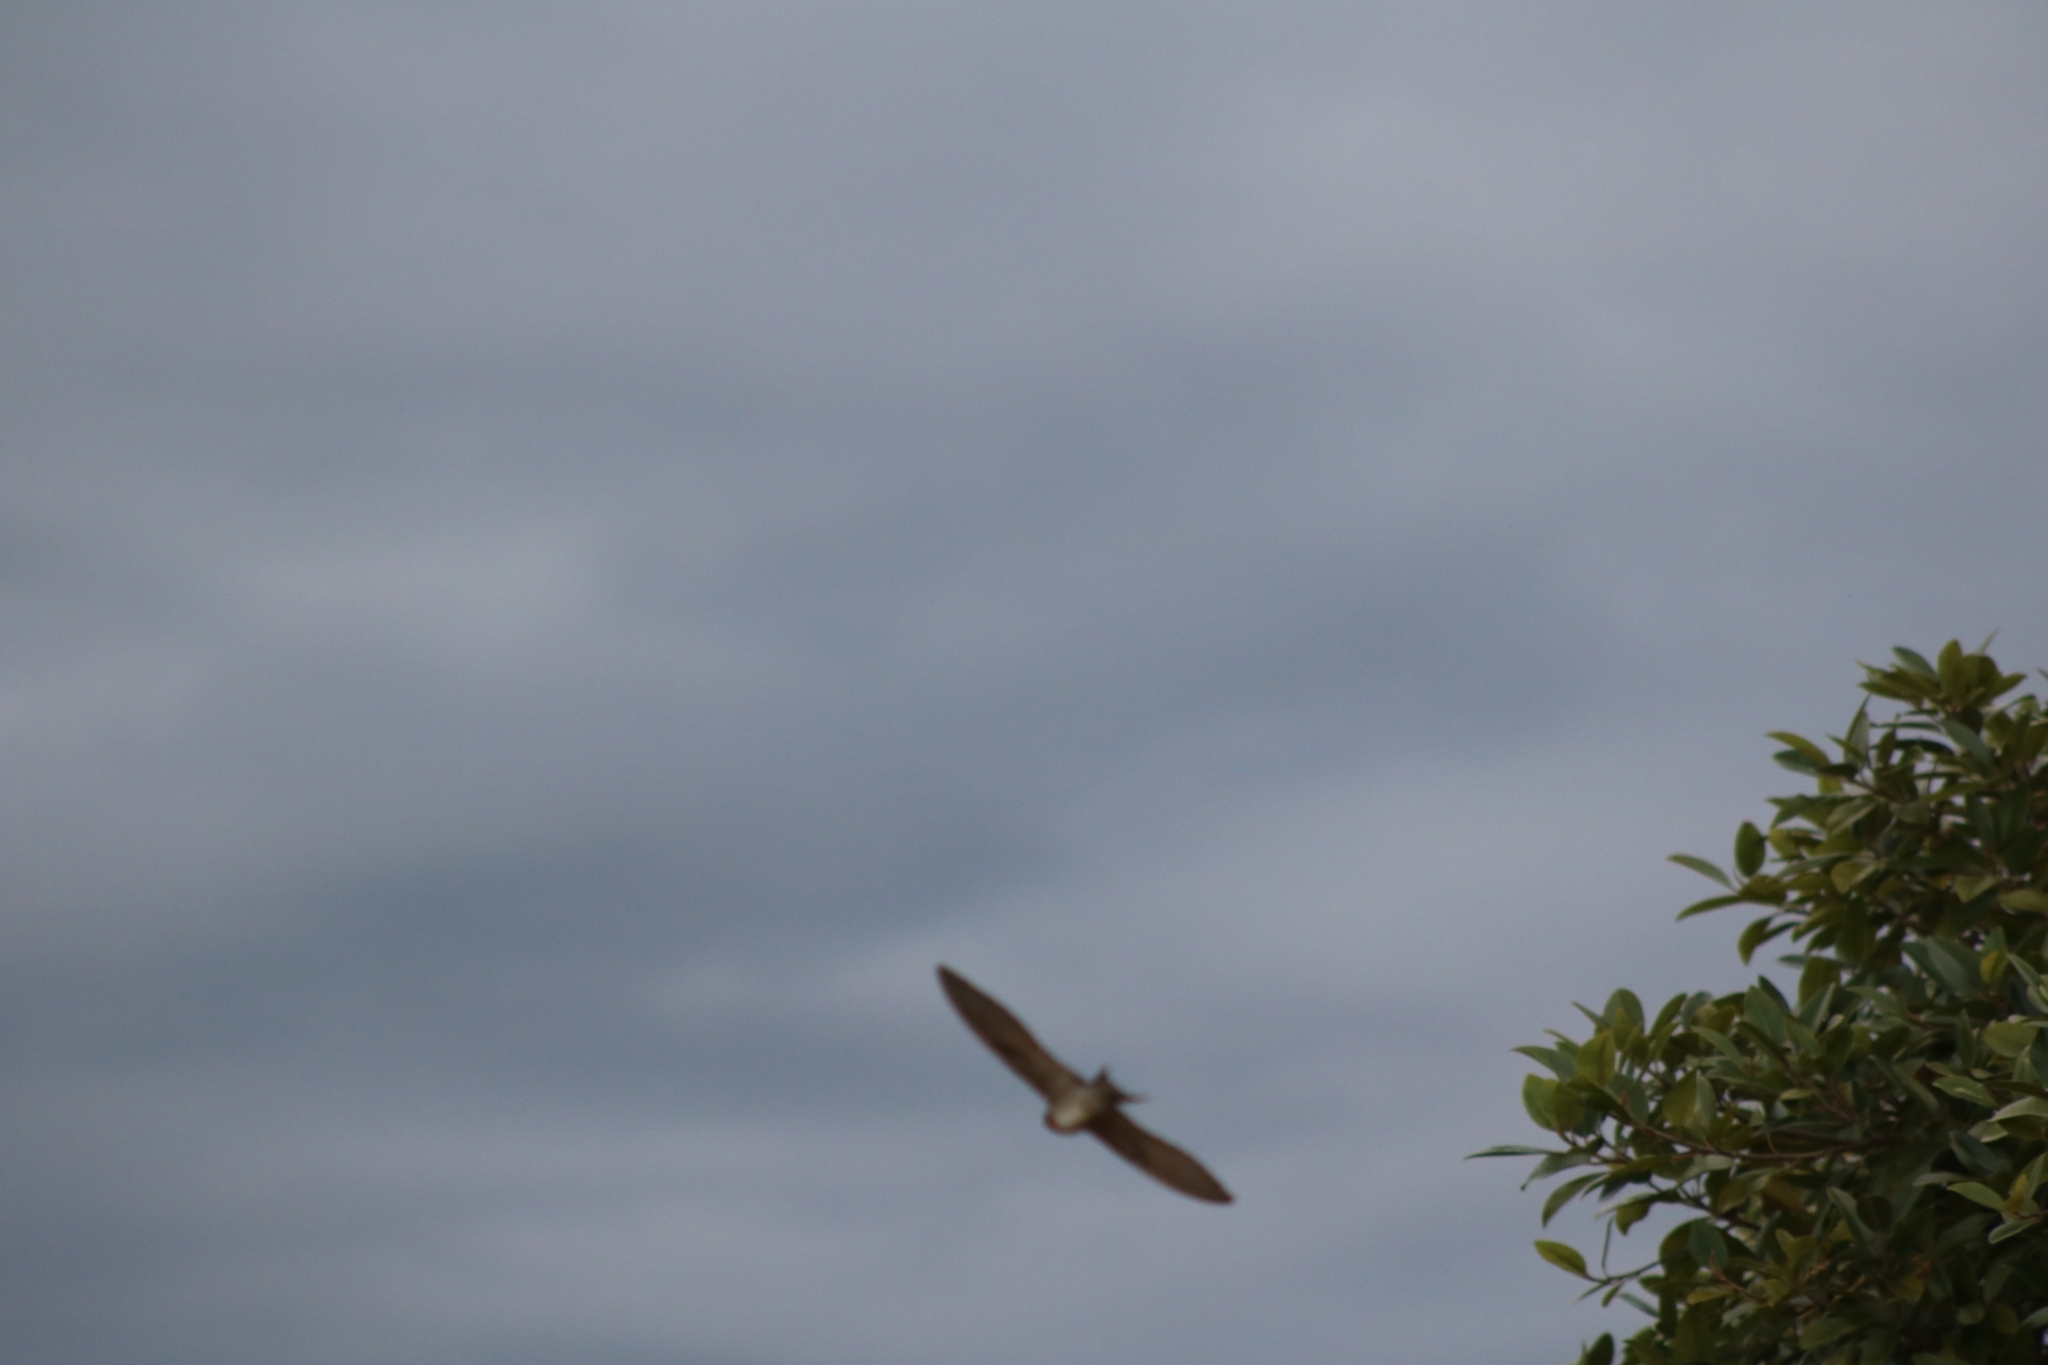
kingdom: Animalia
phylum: Chordata
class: Aves
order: Passeriformes
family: Hirundinidae
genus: Hirundo
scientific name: Hirundo neoxena
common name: Welcome swallow
